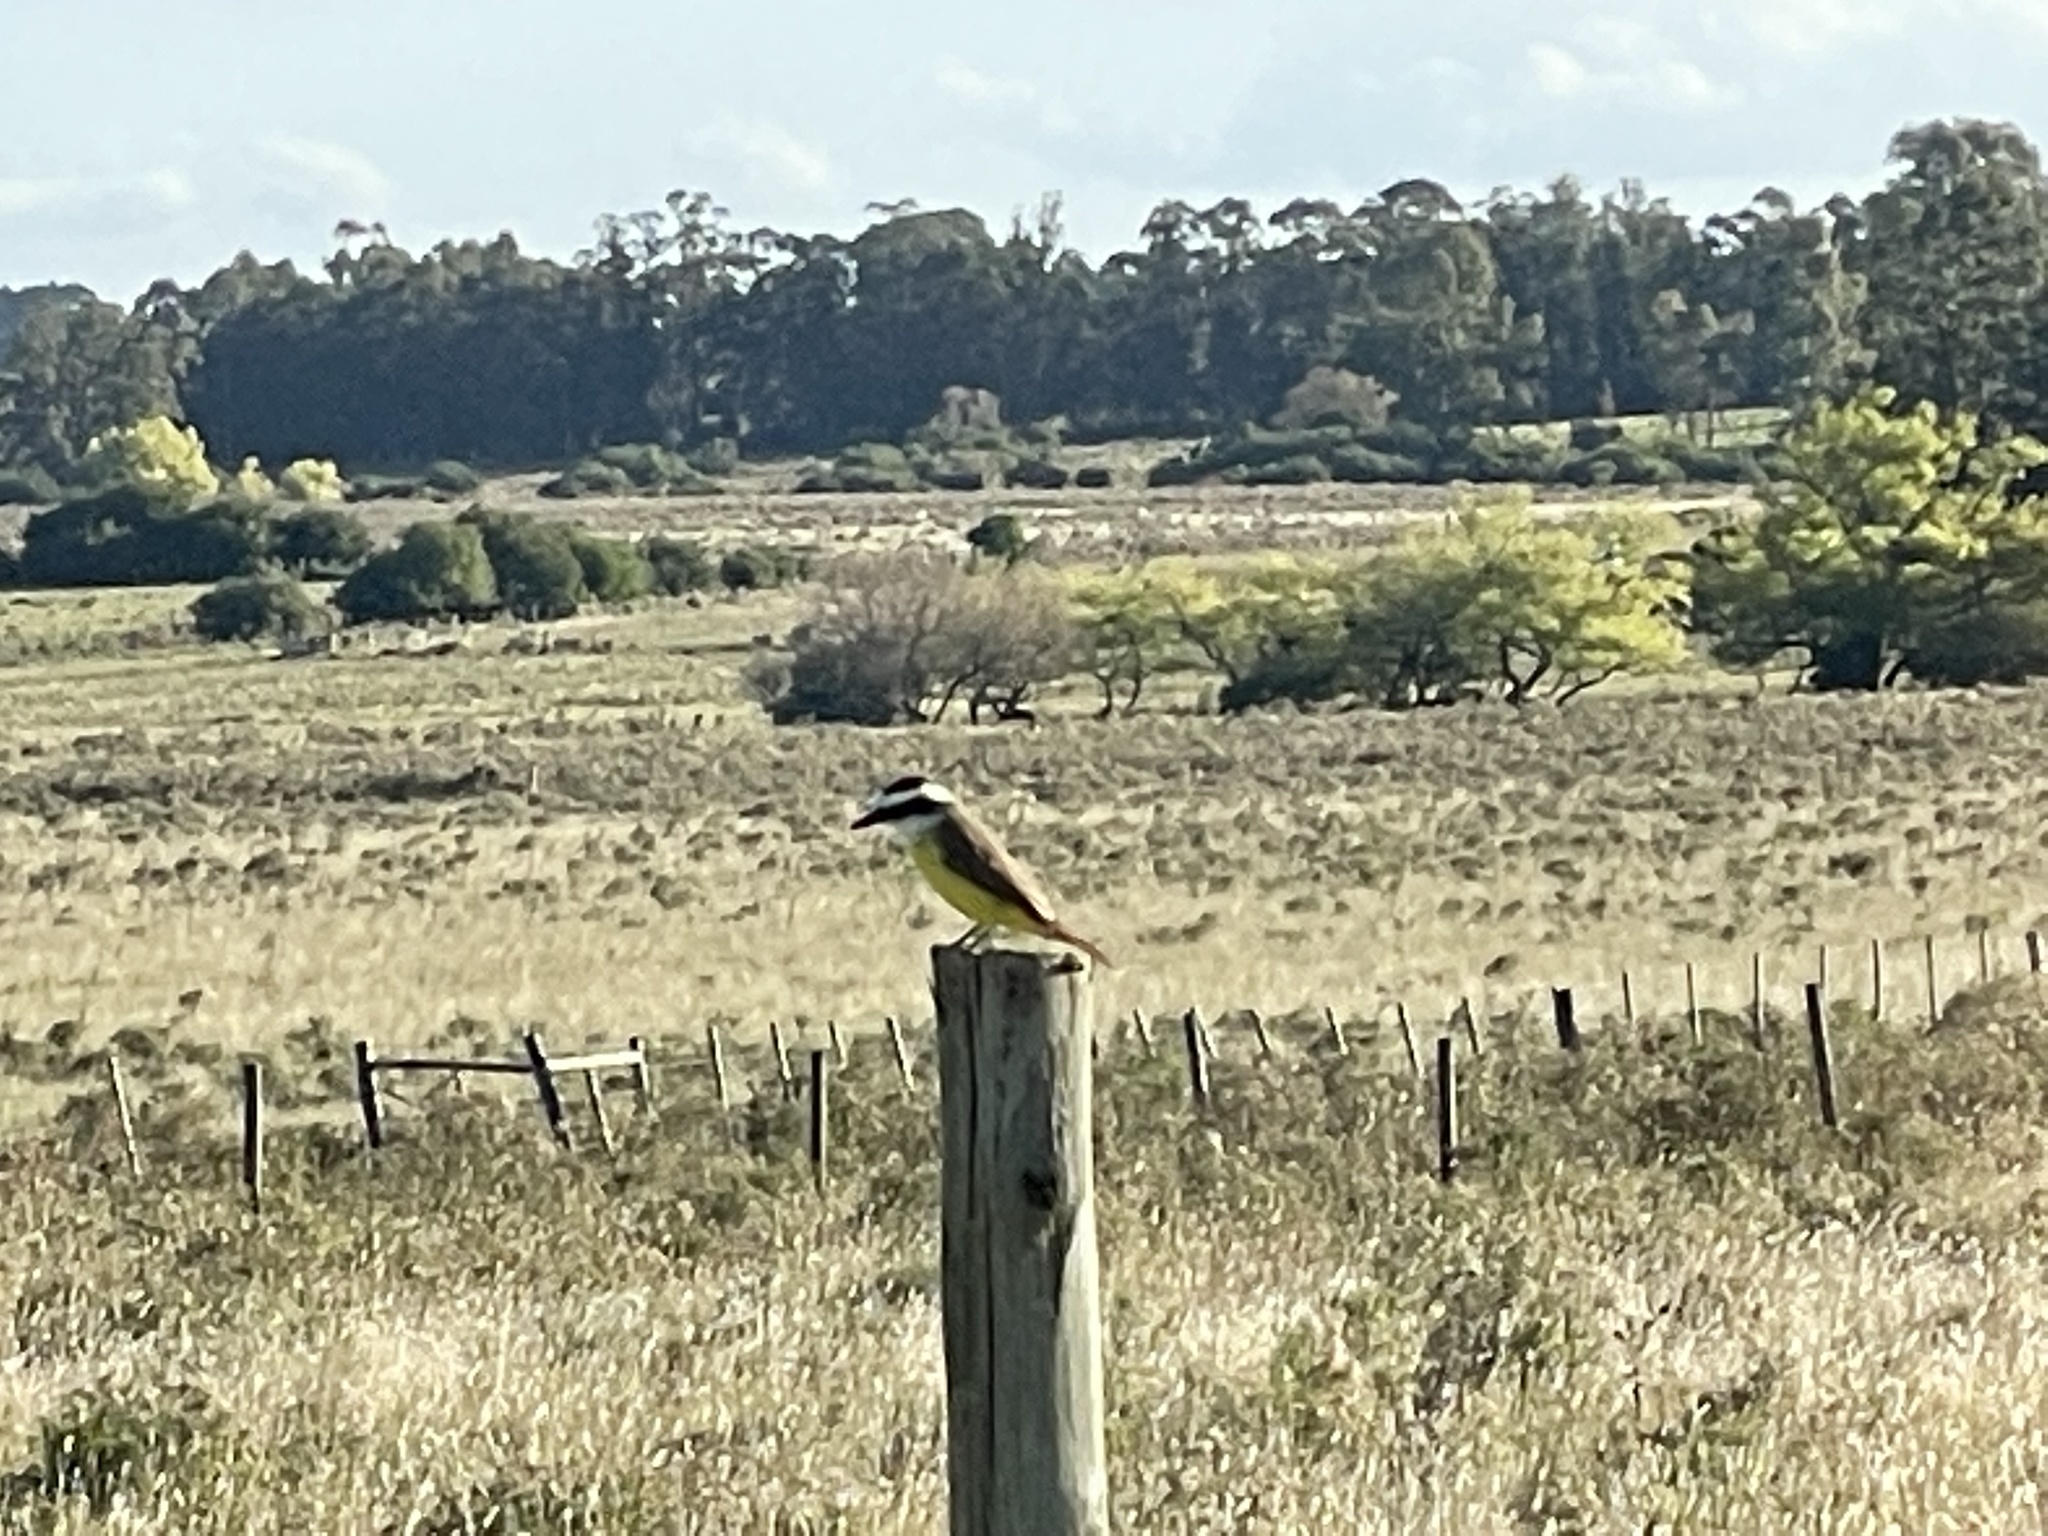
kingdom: Animalia
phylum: Chordata
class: Aves
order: Passeriformes
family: Tyrannidae
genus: Pitangus
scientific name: Pitangus sulphuratus
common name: Great kiskadee
